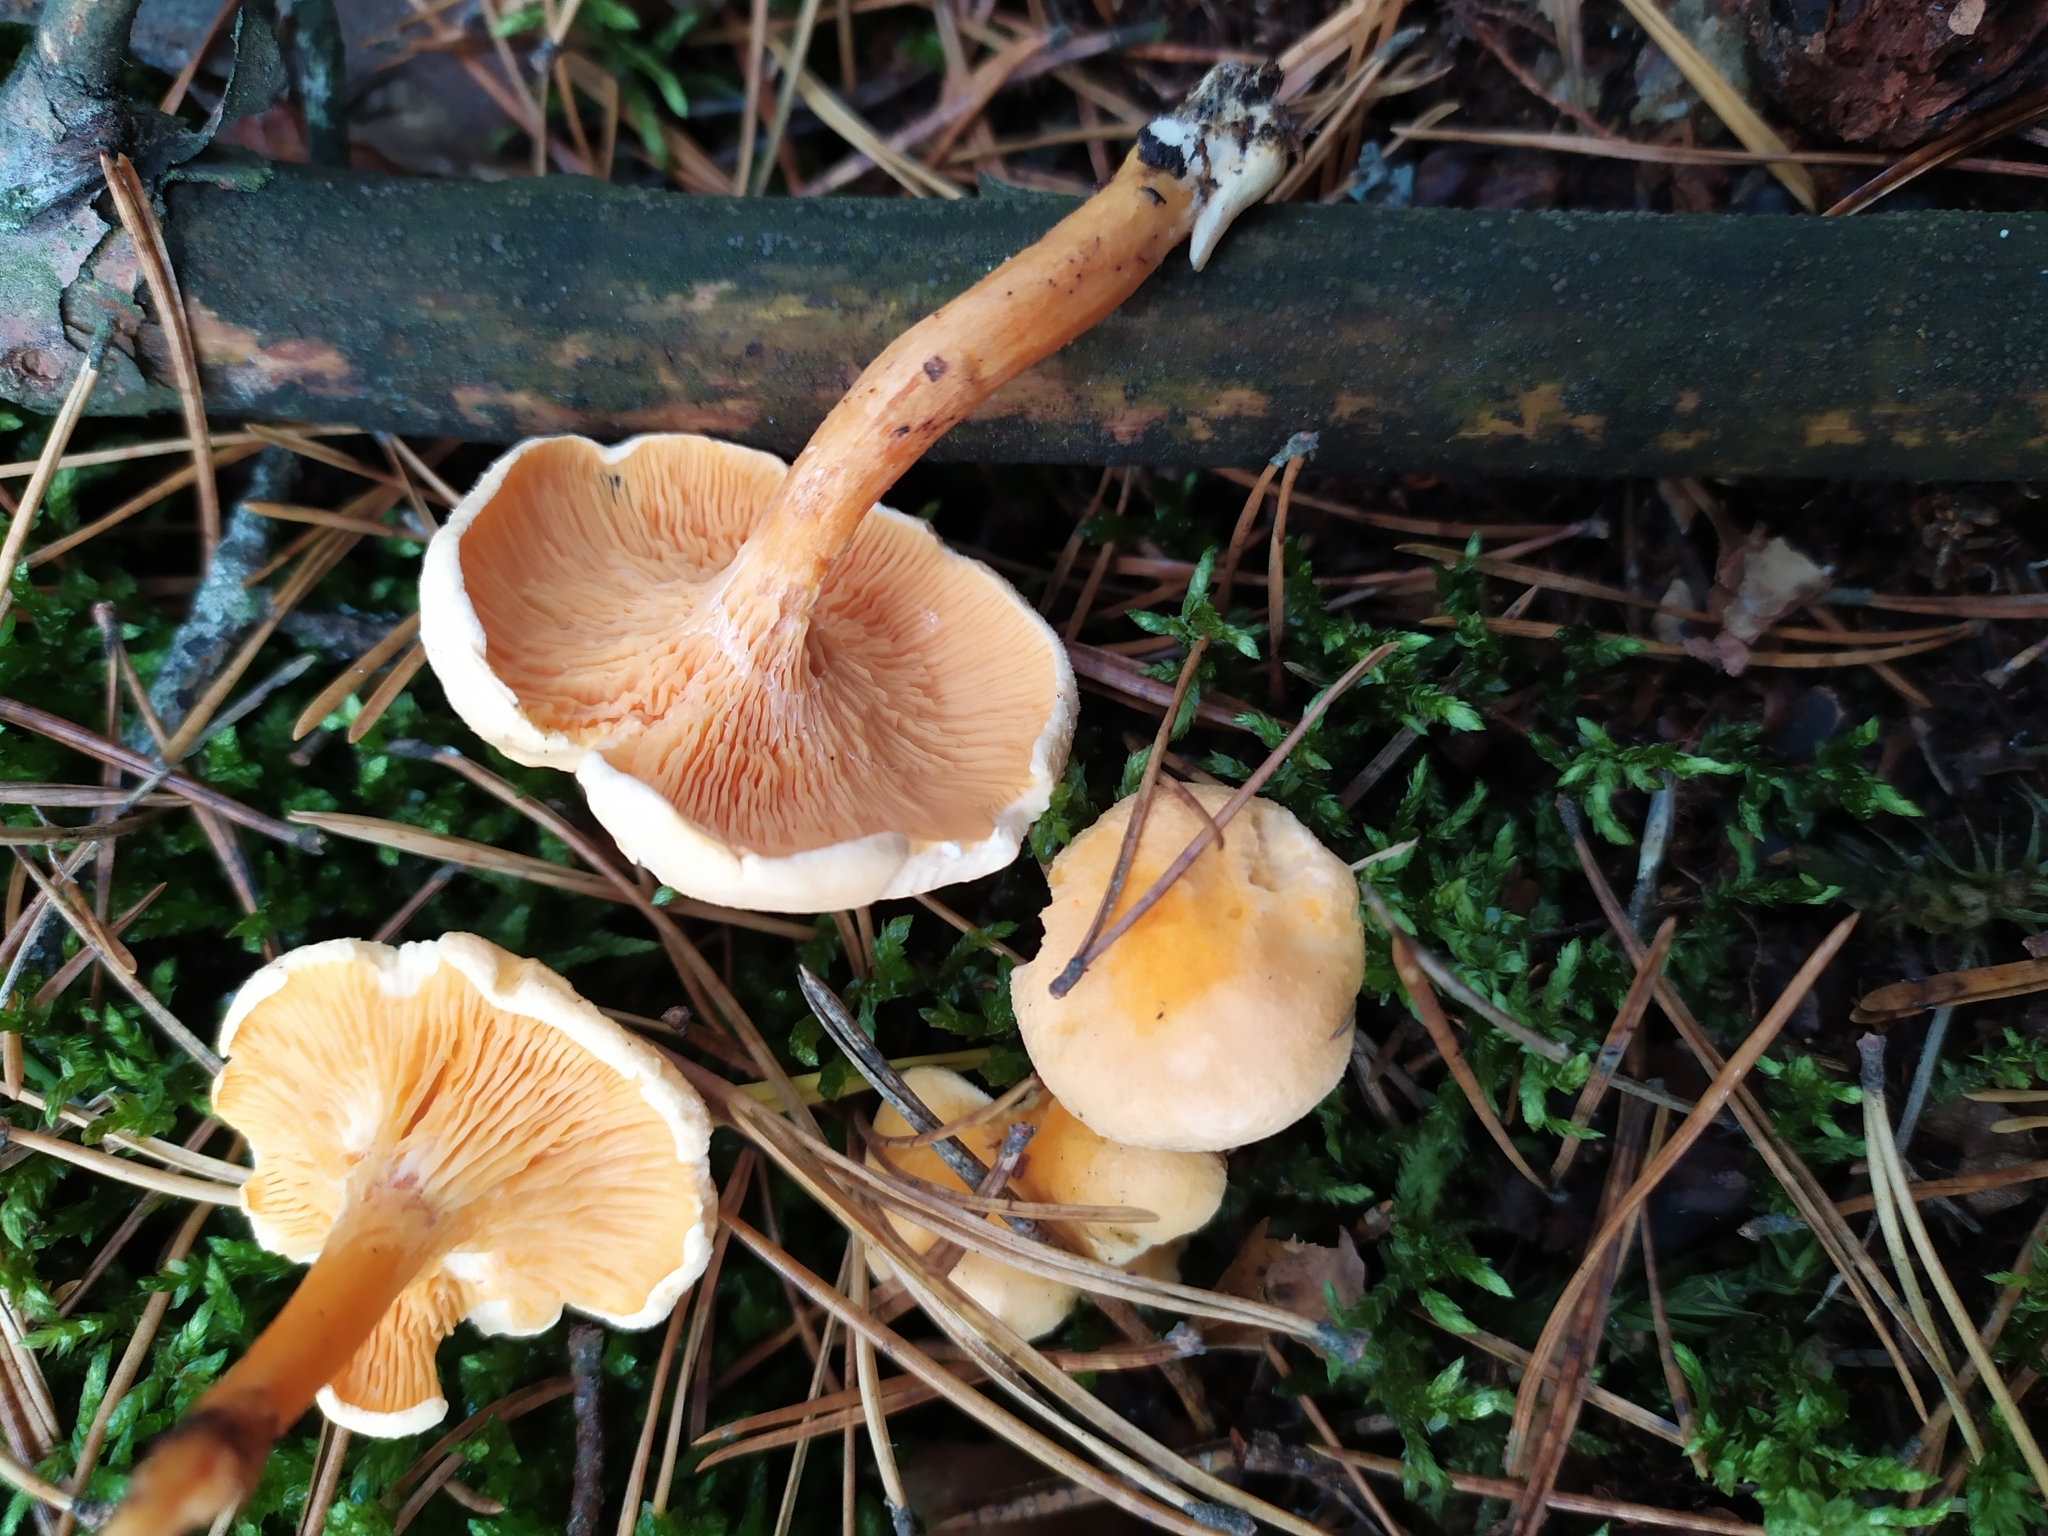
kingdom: Fungi
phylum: Basidiomycota
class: Agaricomycetes
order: Boletales
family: Hygrophoropsidaceae
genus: Hygrophoropsis
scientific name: Hygrophoropsis aurantiaca
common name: False chanterelle
